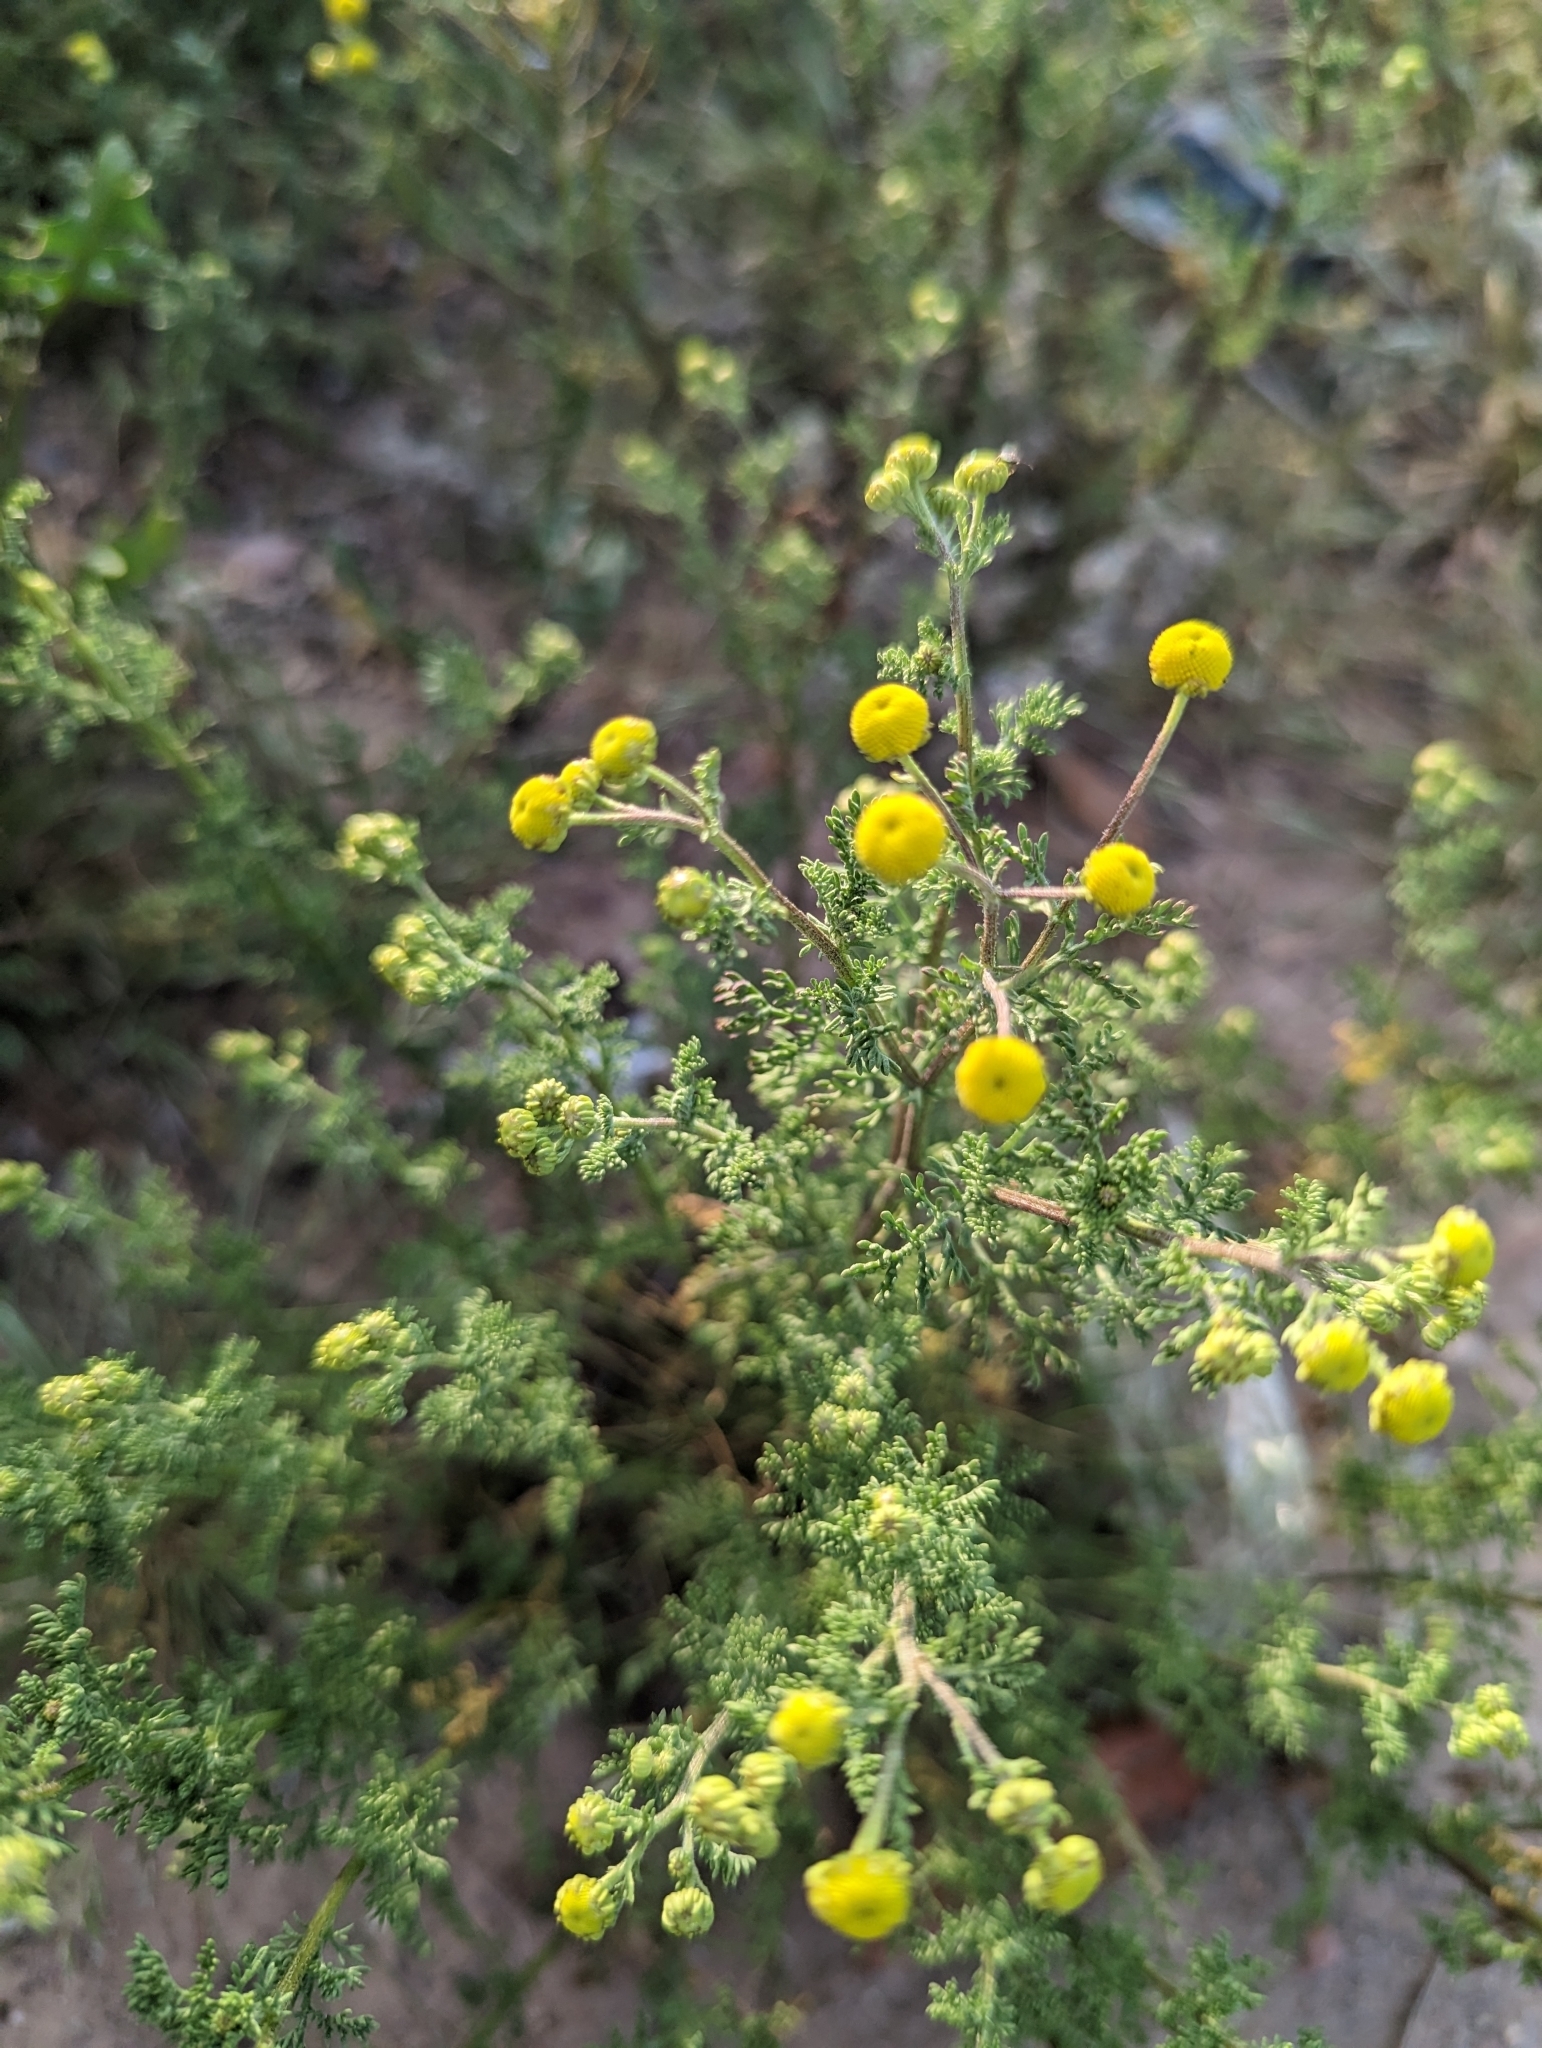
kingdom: Plantae
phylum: Tracheophyta
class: Magnoliopsida
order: Asterales
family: Asteraceae
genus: Oncosiphon
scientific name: Oncosiphon pilulifer
